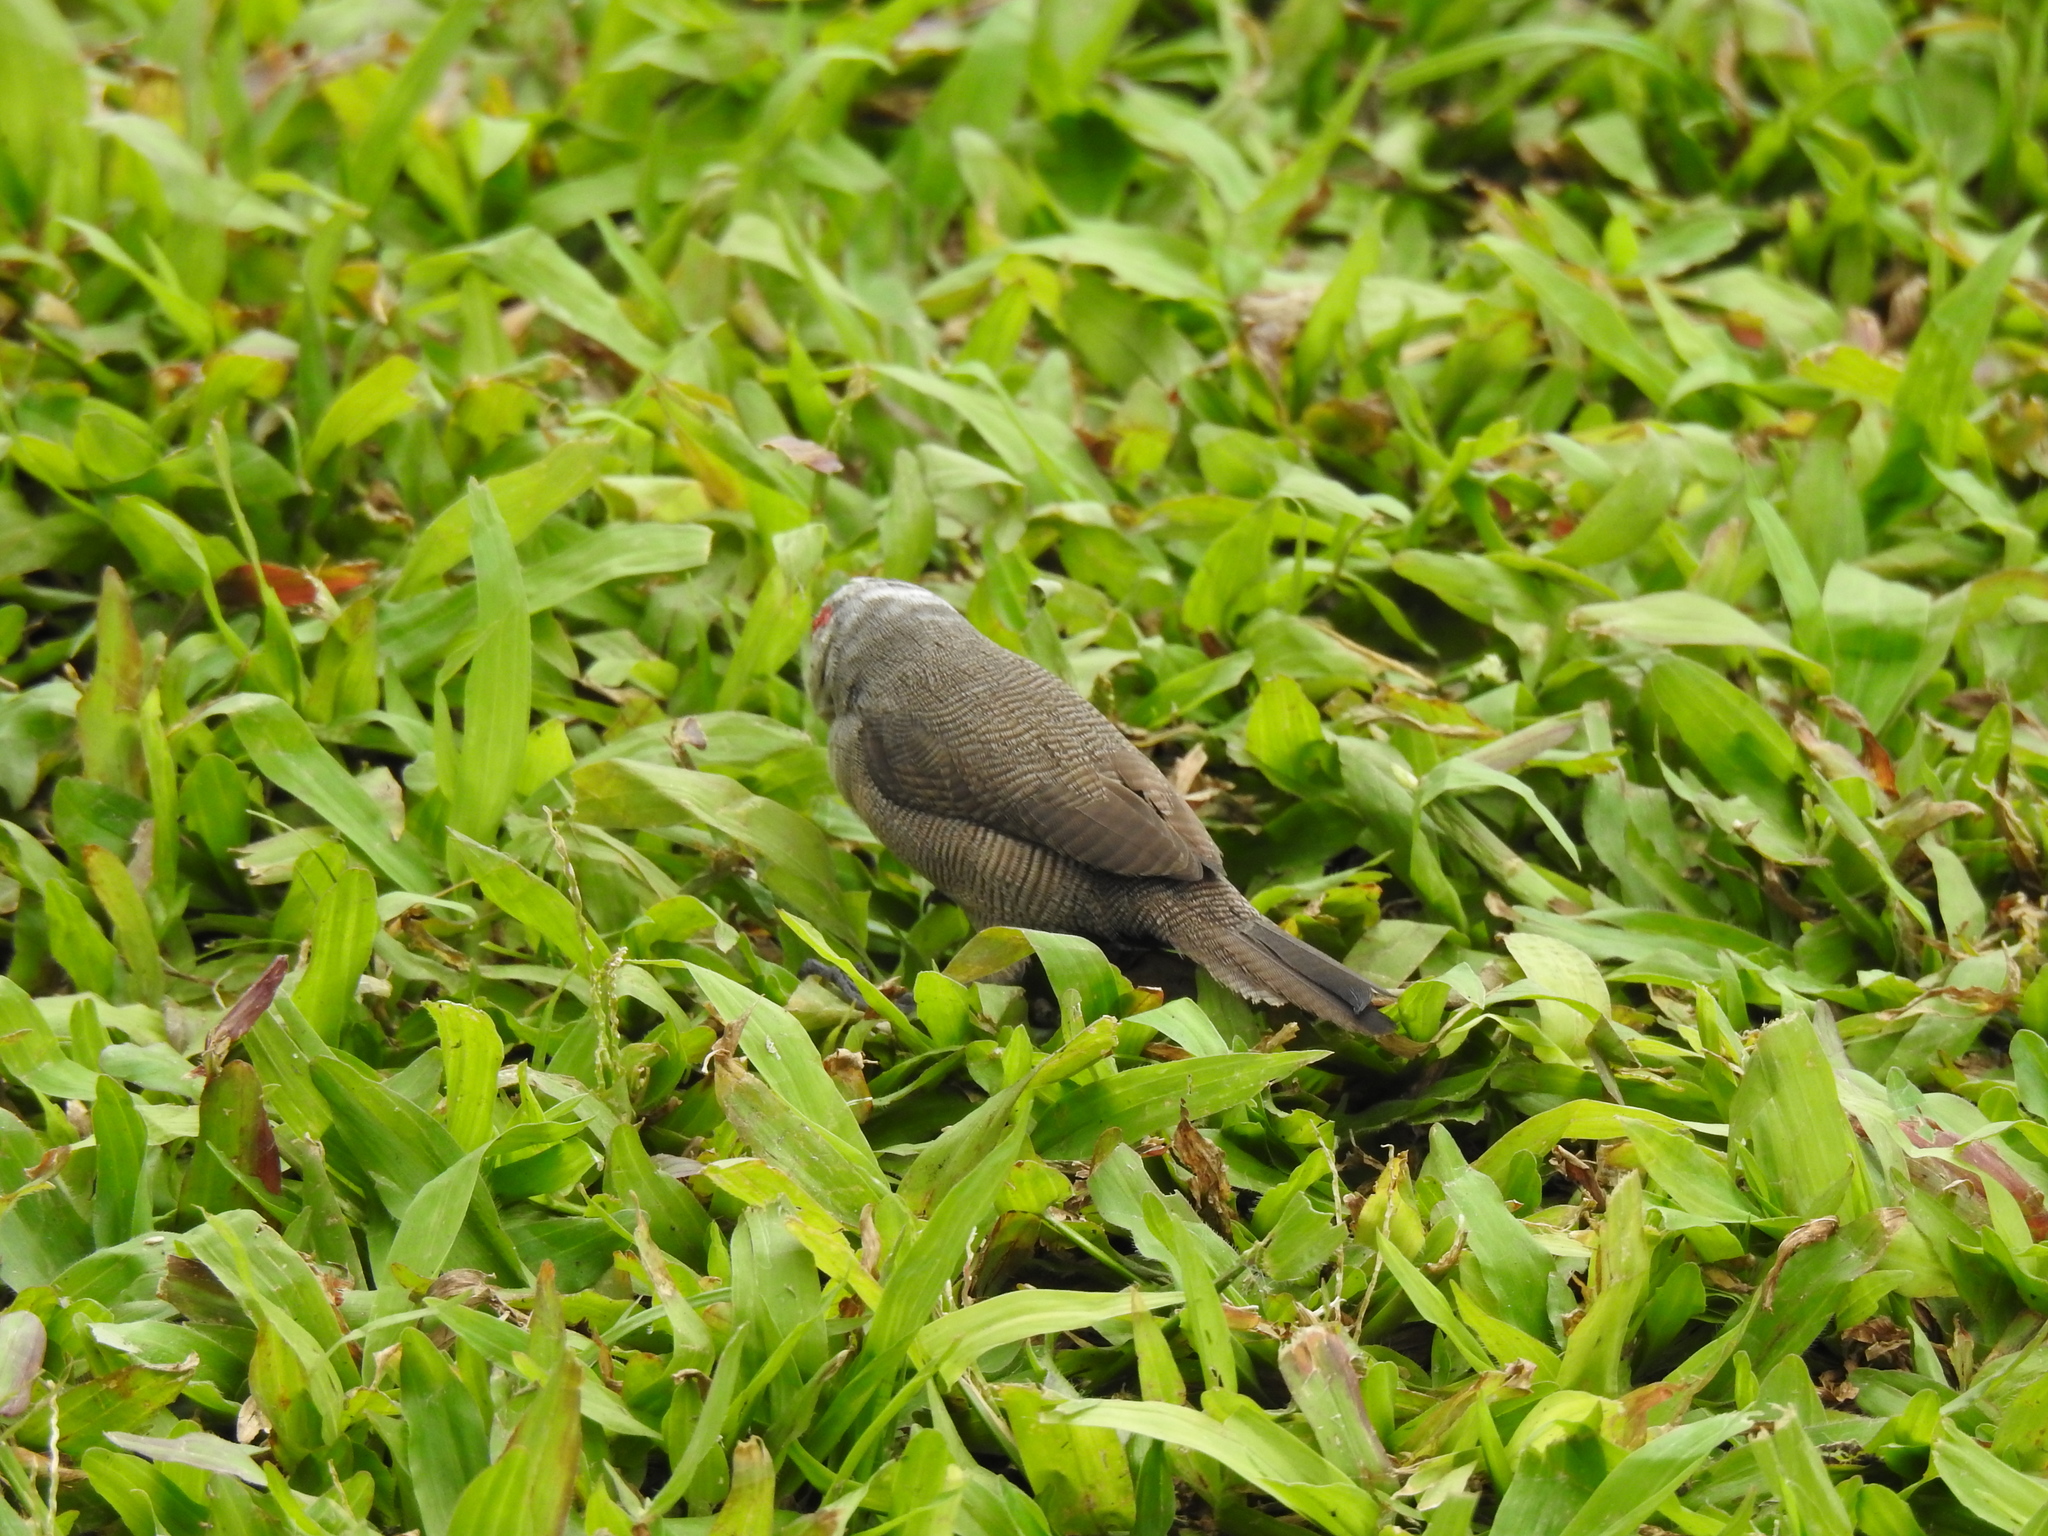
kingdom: Animalia
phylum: Chordata
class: Aves
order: Passeriformes
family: Estrildidae
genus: Estrilda
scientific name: Estrilda astrild
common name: Common waxbill
